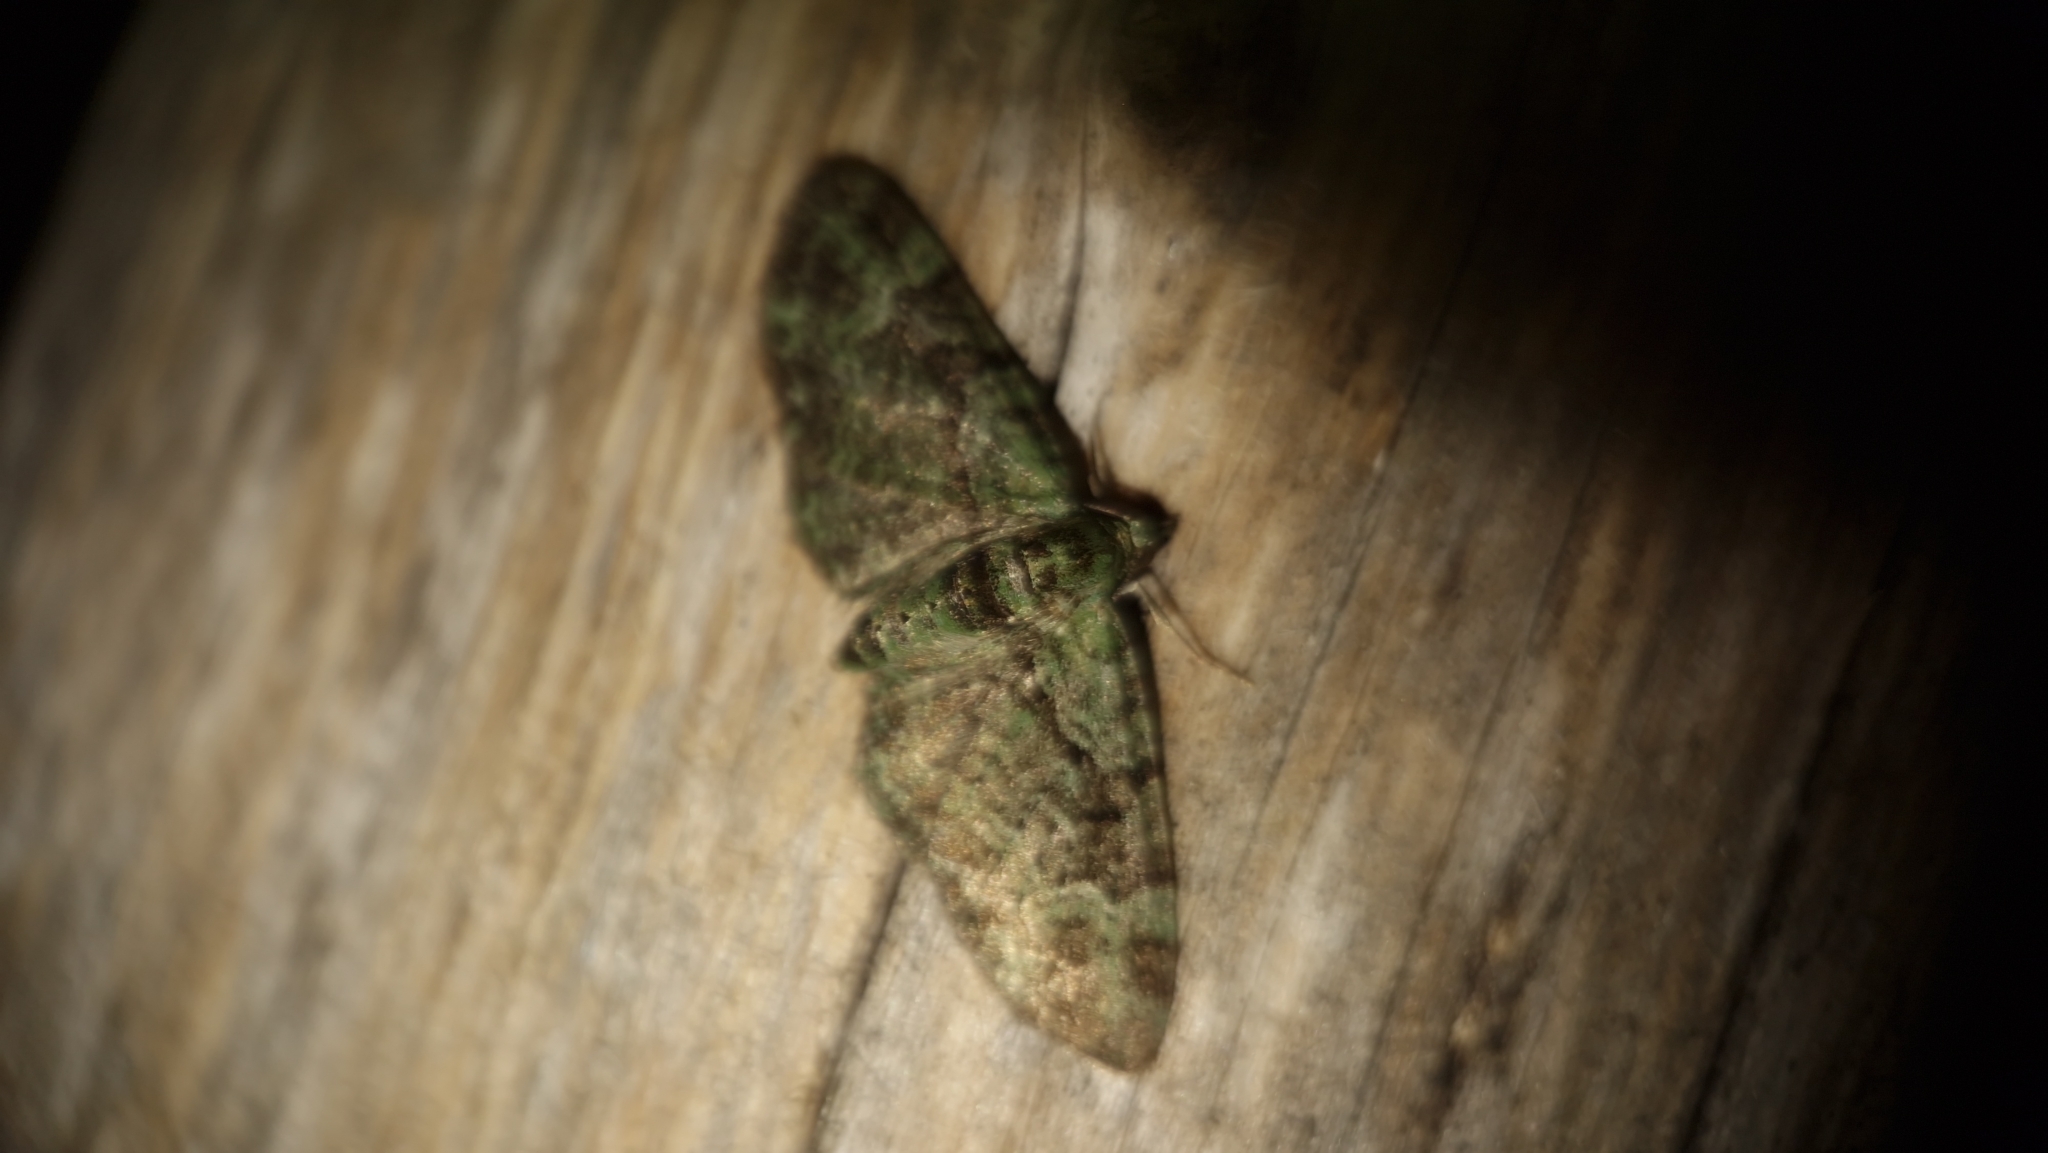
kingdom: Animalia
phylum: Arthropoda
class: Insecta
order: Lepidoptera
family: Geometridae
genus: Pasiphila
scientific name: Pasiphila rectangulata
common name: Green pug
